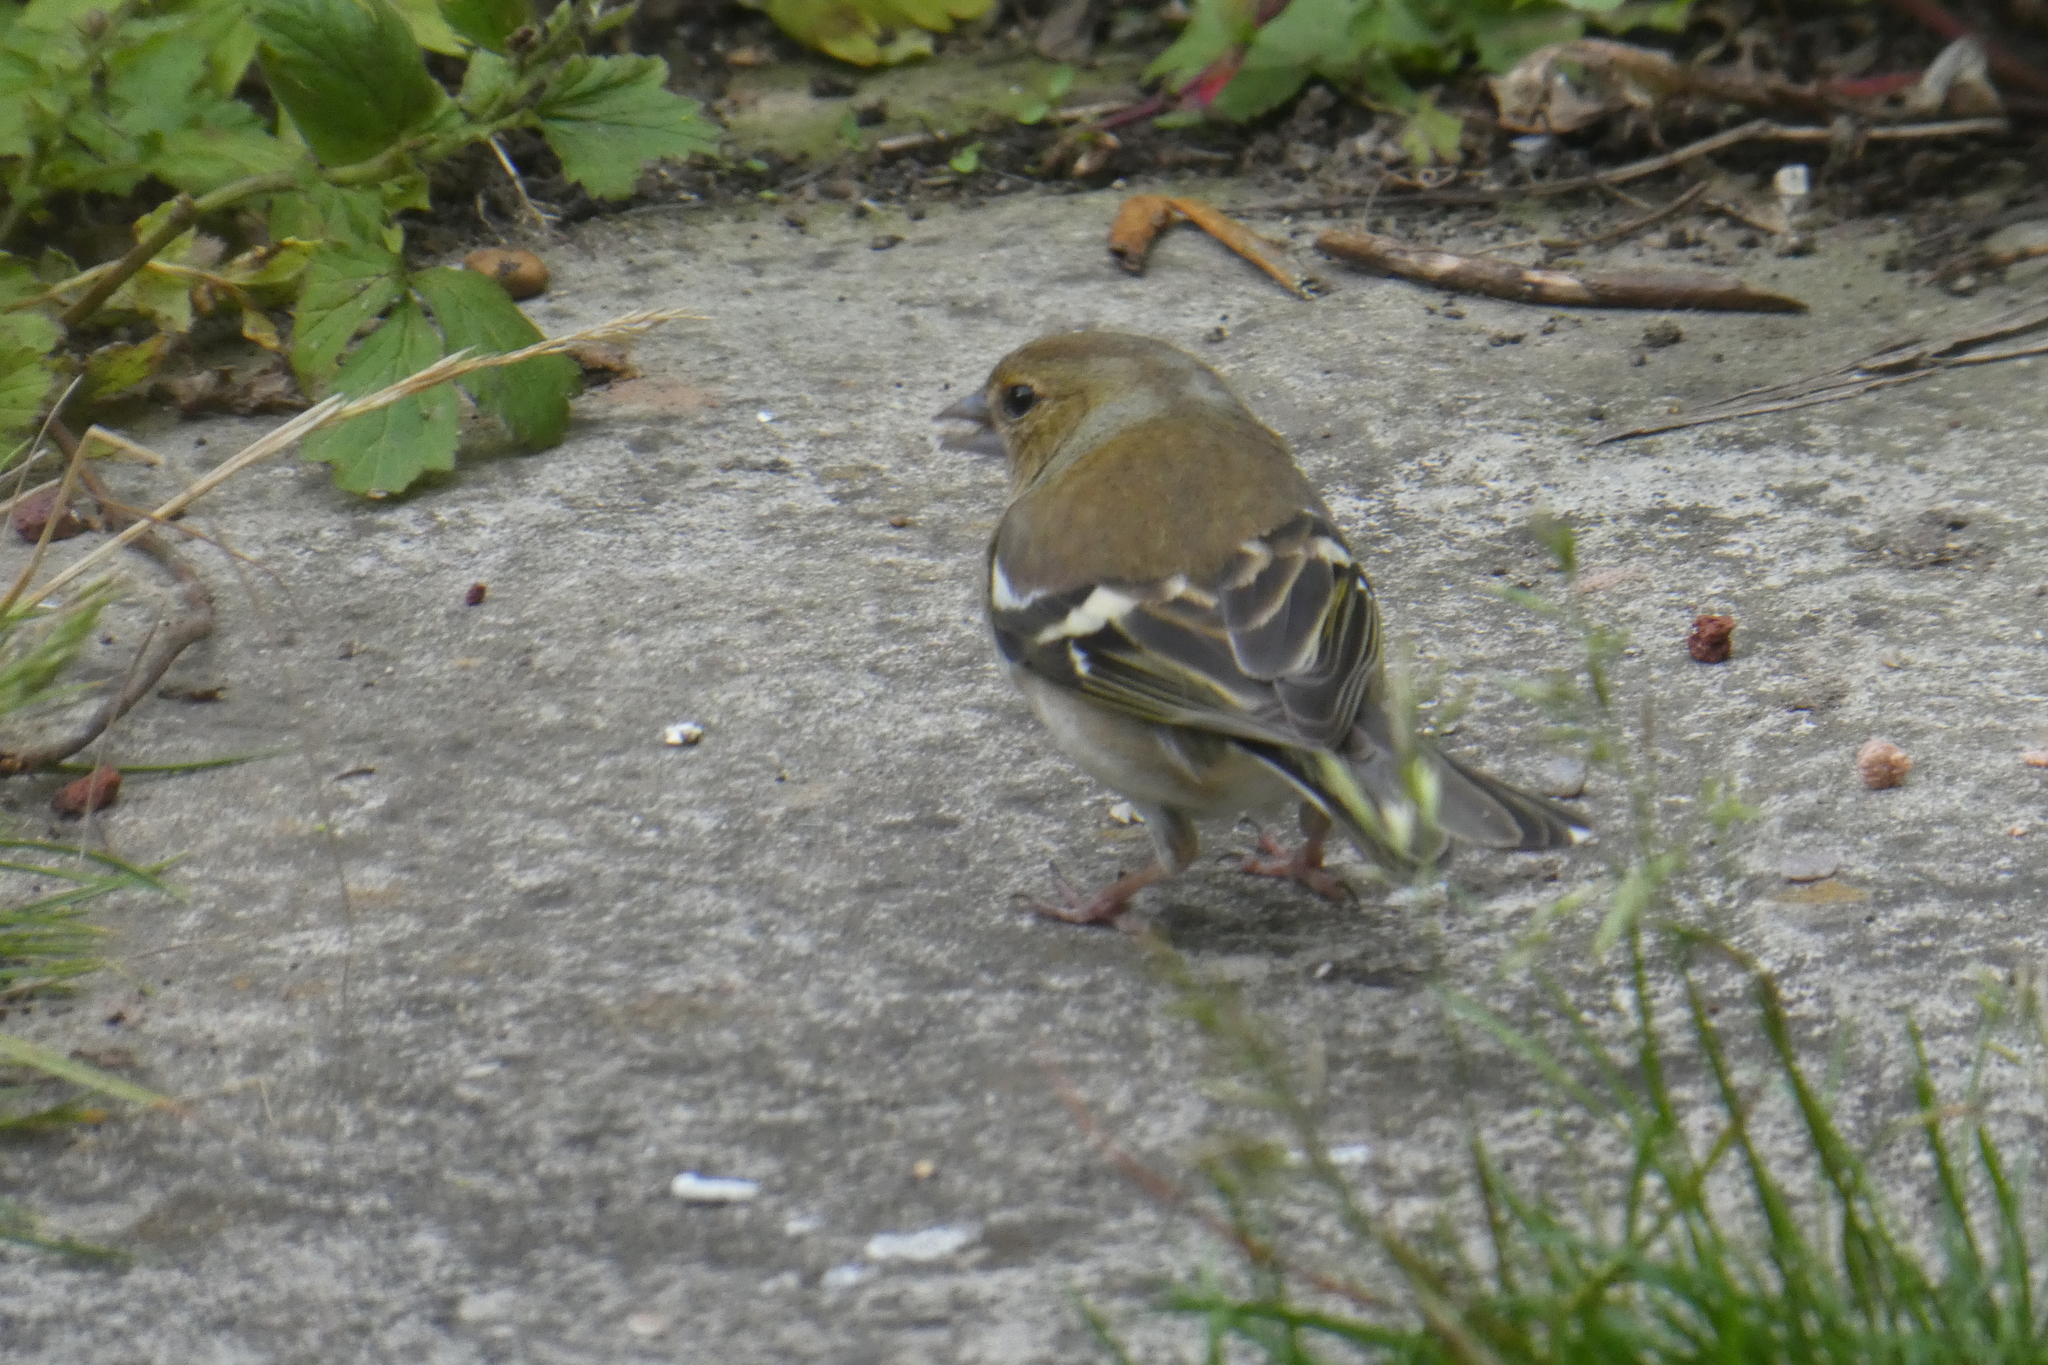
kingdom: Animalia
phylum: Chordata
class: Aves
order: Passeriformes
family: Fringillidae
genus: Fringilla
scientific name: Fringilla coelebs
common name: Common chaffinch
